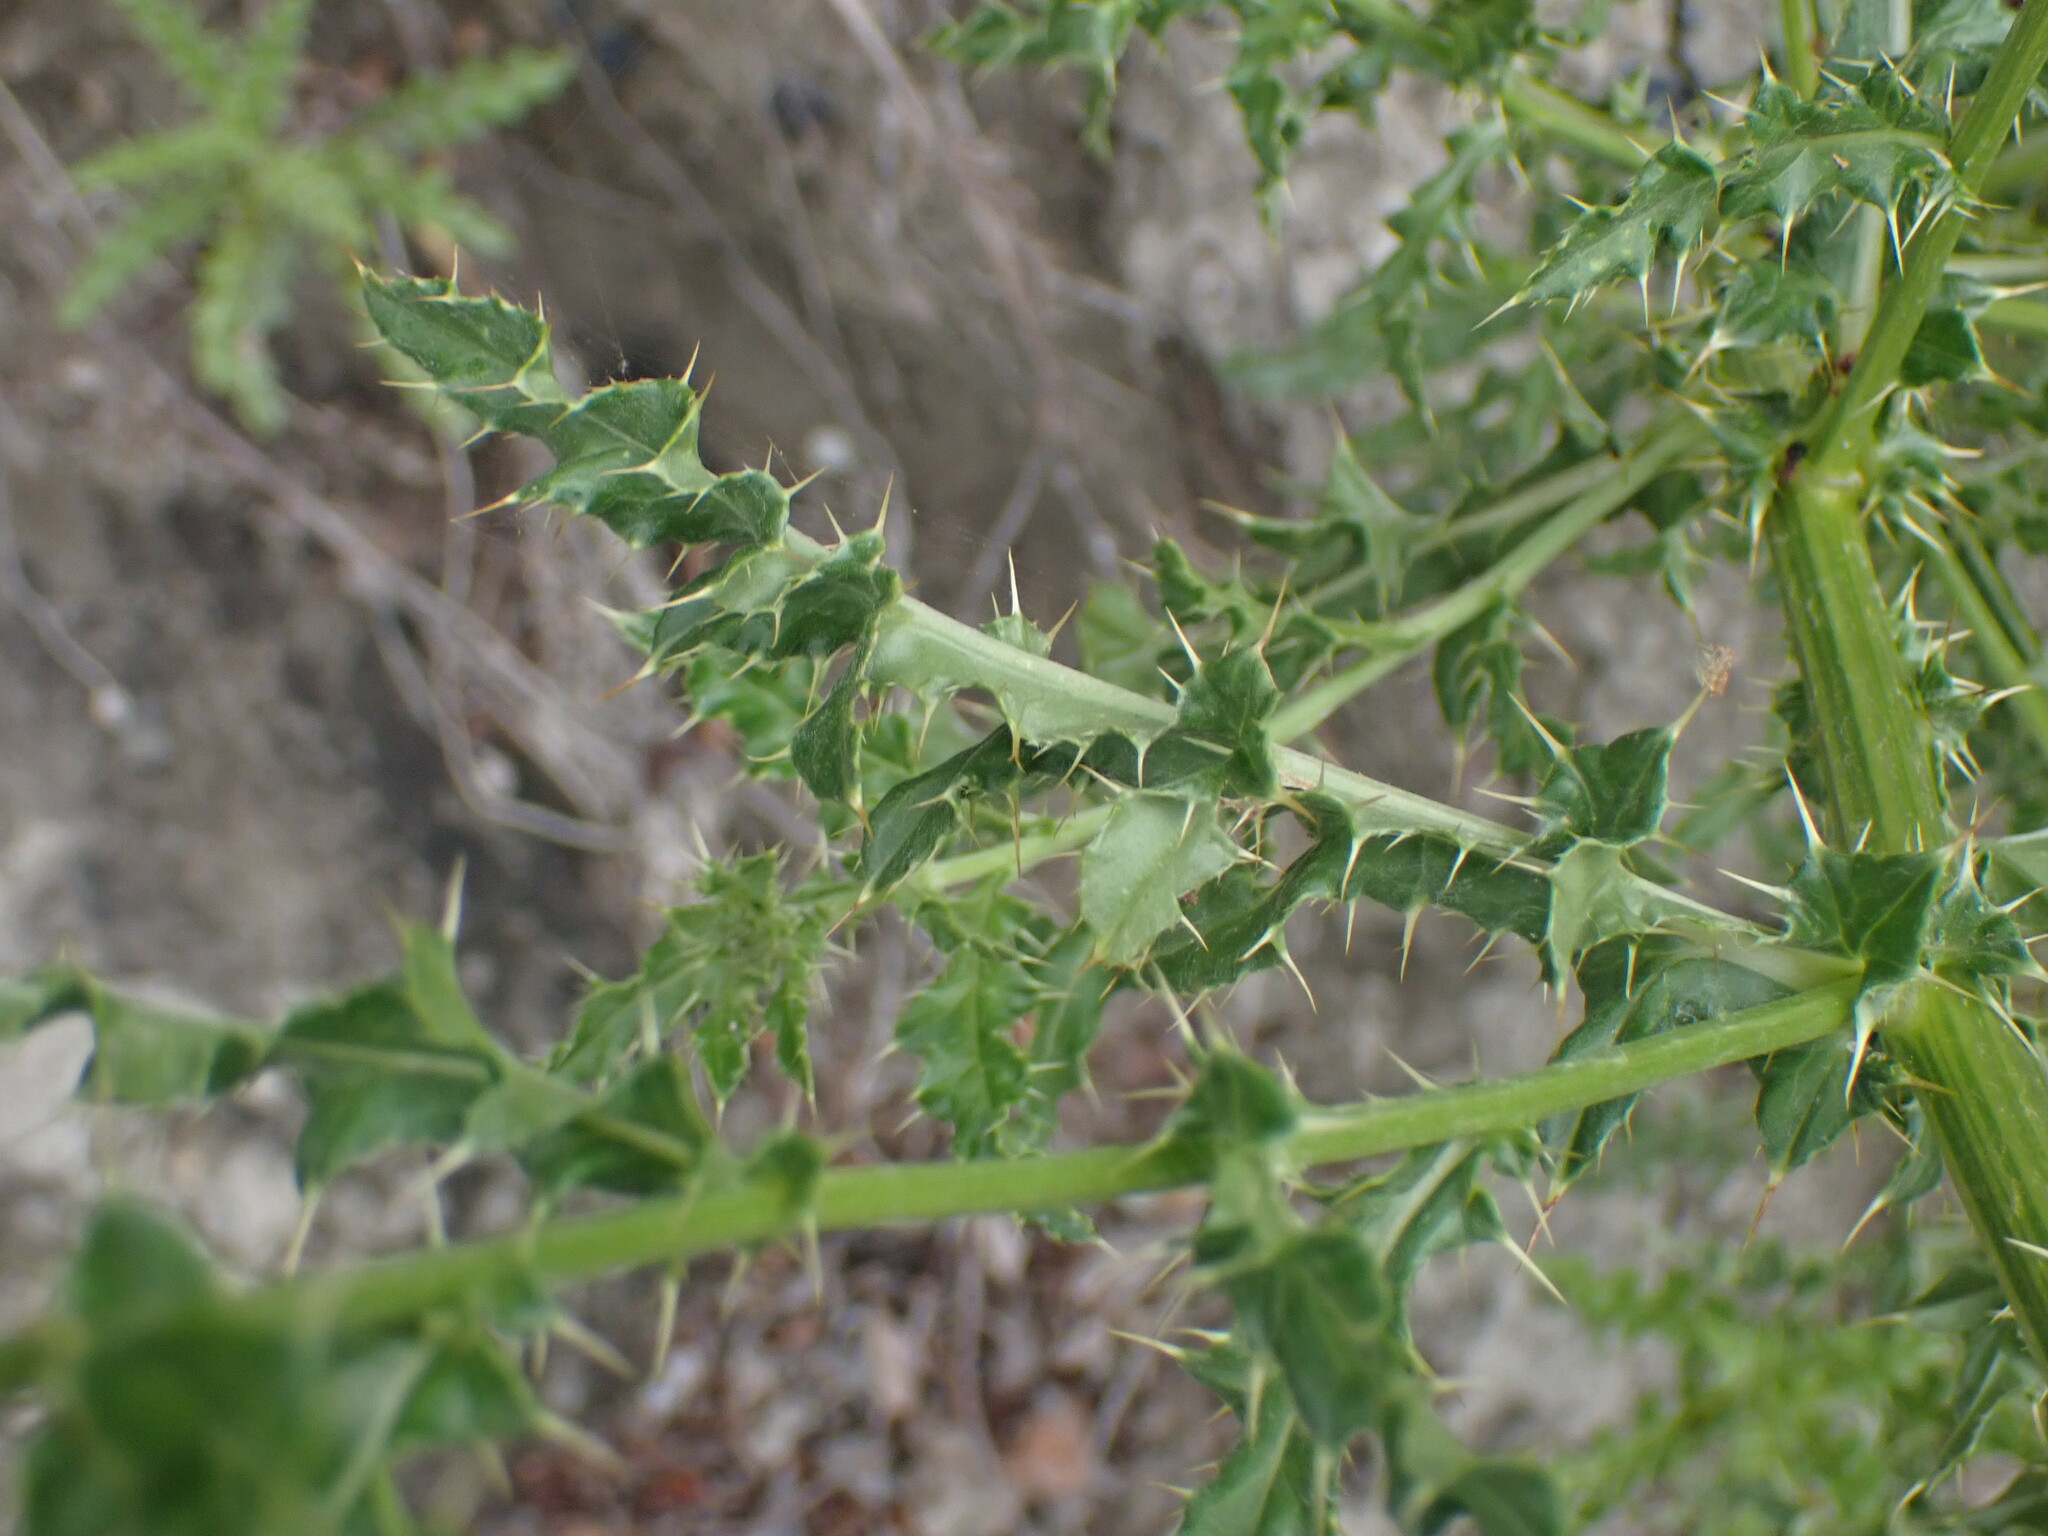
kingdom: Plantae
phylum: Tracheophyta
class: Magnoliopsida
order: Asterales
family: Asteraceae
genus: Cirsium
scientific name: Cirsium arvense
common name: Creeping thistle
